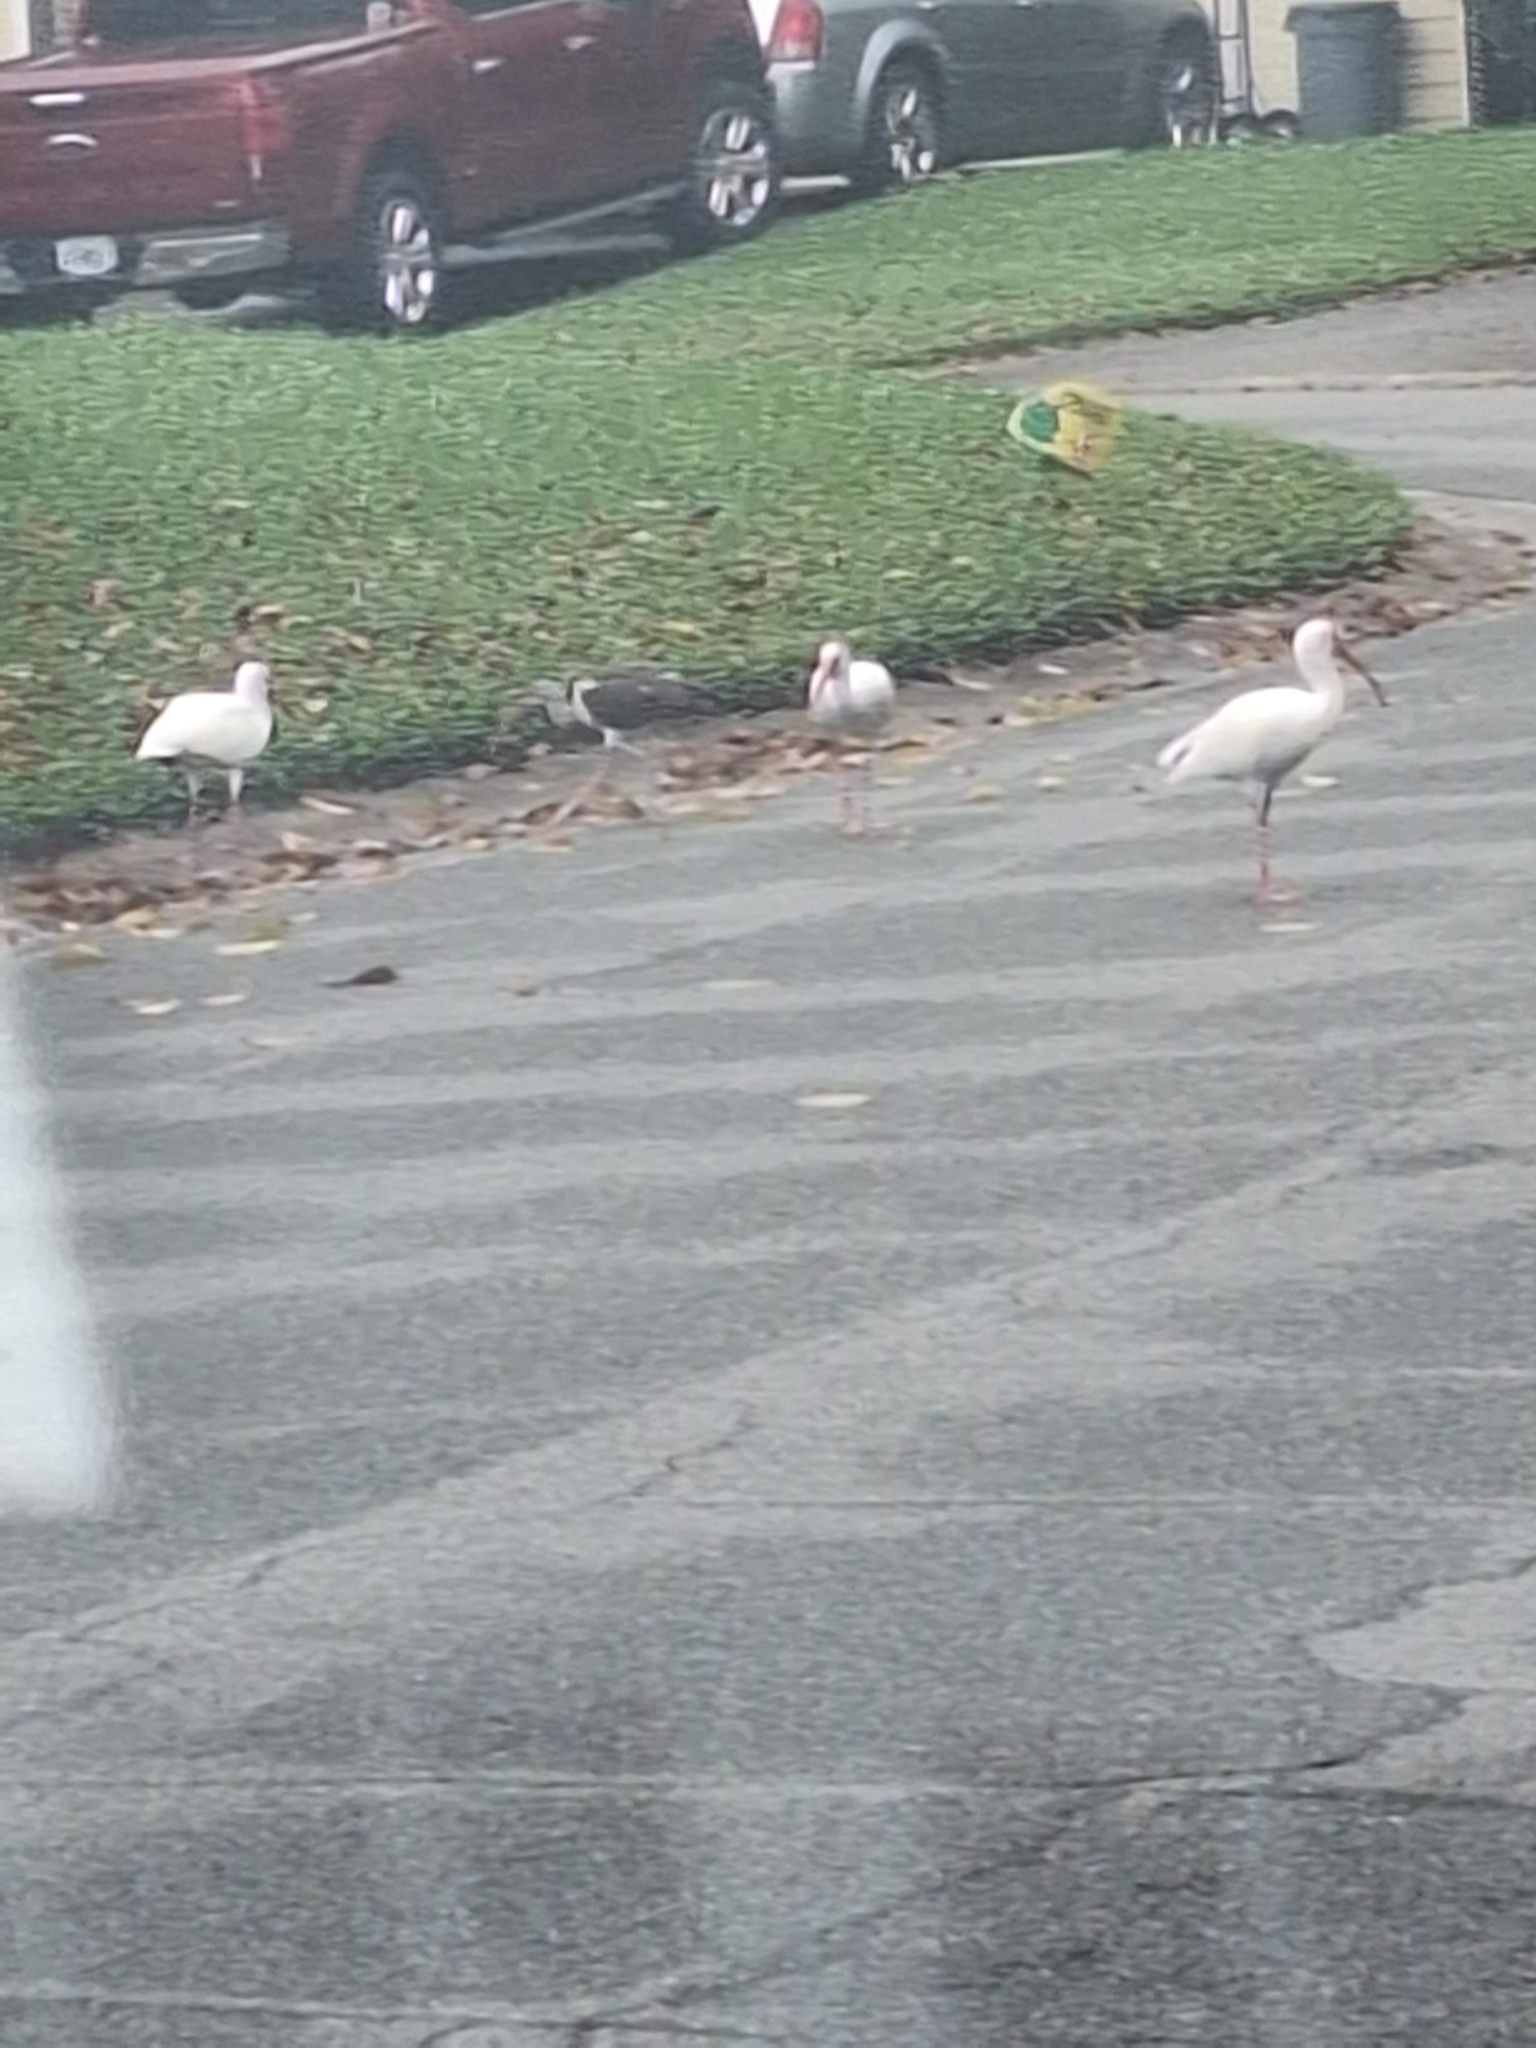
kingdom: Animalia
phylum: Chordata
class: Aves
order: Pelecaniformes
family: Threskiornithidae
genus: Eudocimus
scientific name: Eudocimus albus
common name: White ibis
